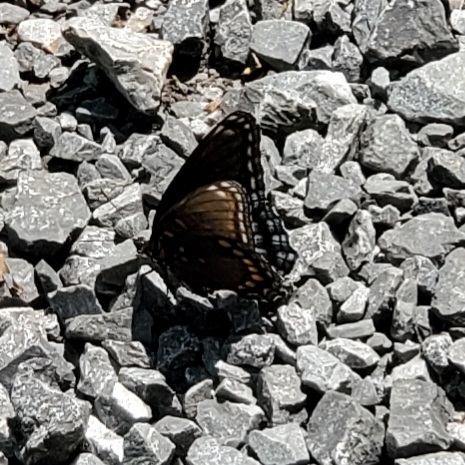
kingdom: Animalia
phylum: Arthropoda
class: Insecta
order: Lepidoptera
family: Nymphalidae
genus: Limenitis
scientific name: Limenitis arthemis
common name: Red-spotted admiral
